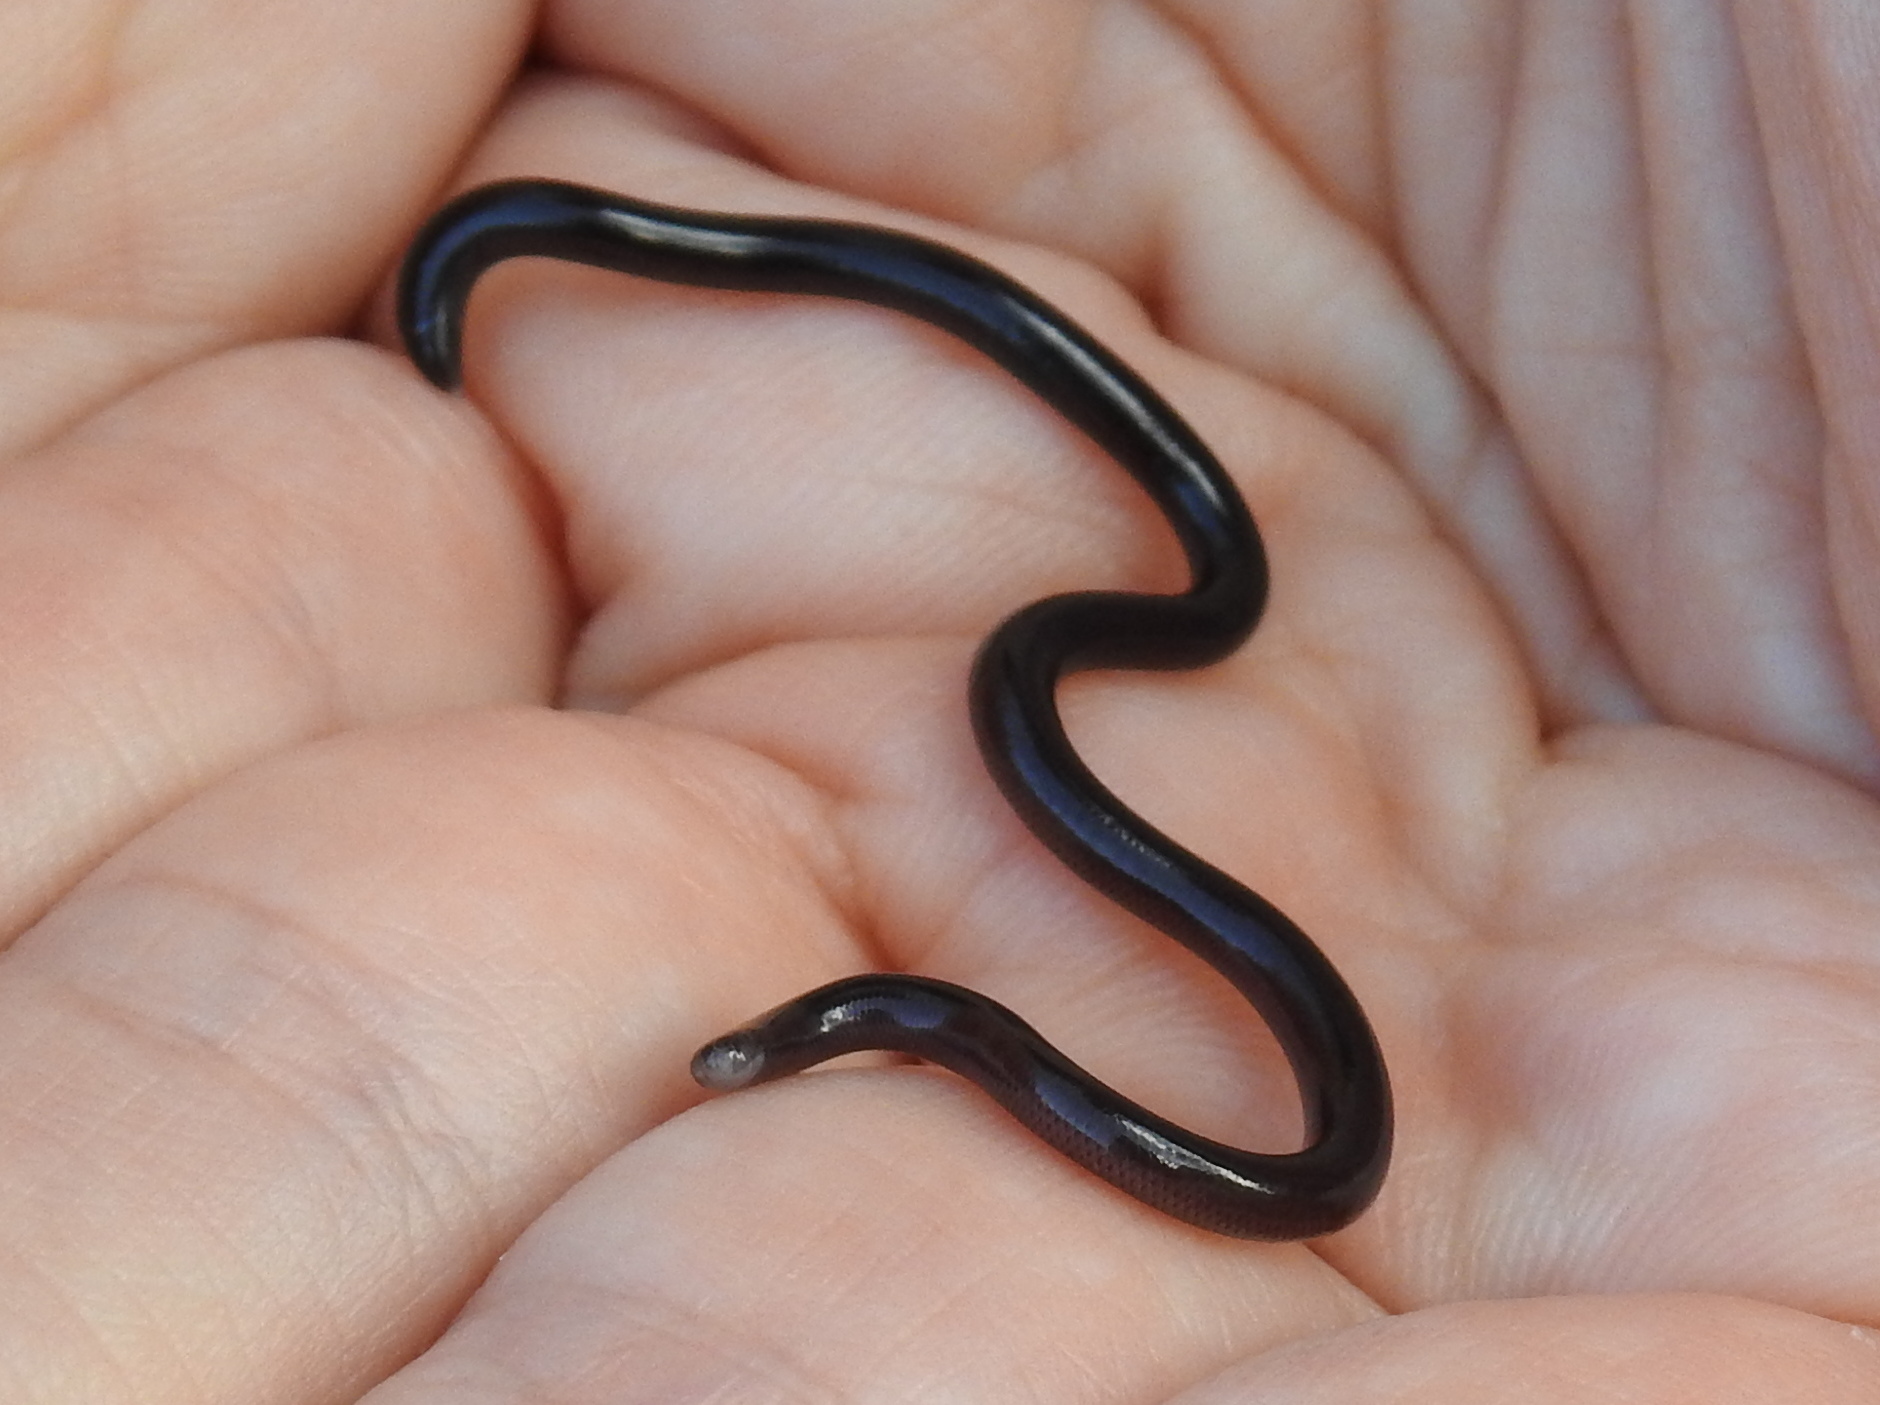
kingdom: Animalia
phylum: Chordata
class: Squamata
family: Typhlopidae
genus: Indotyphlops
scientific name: Indotyphlops braminus
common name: Brahminy blindsnake
